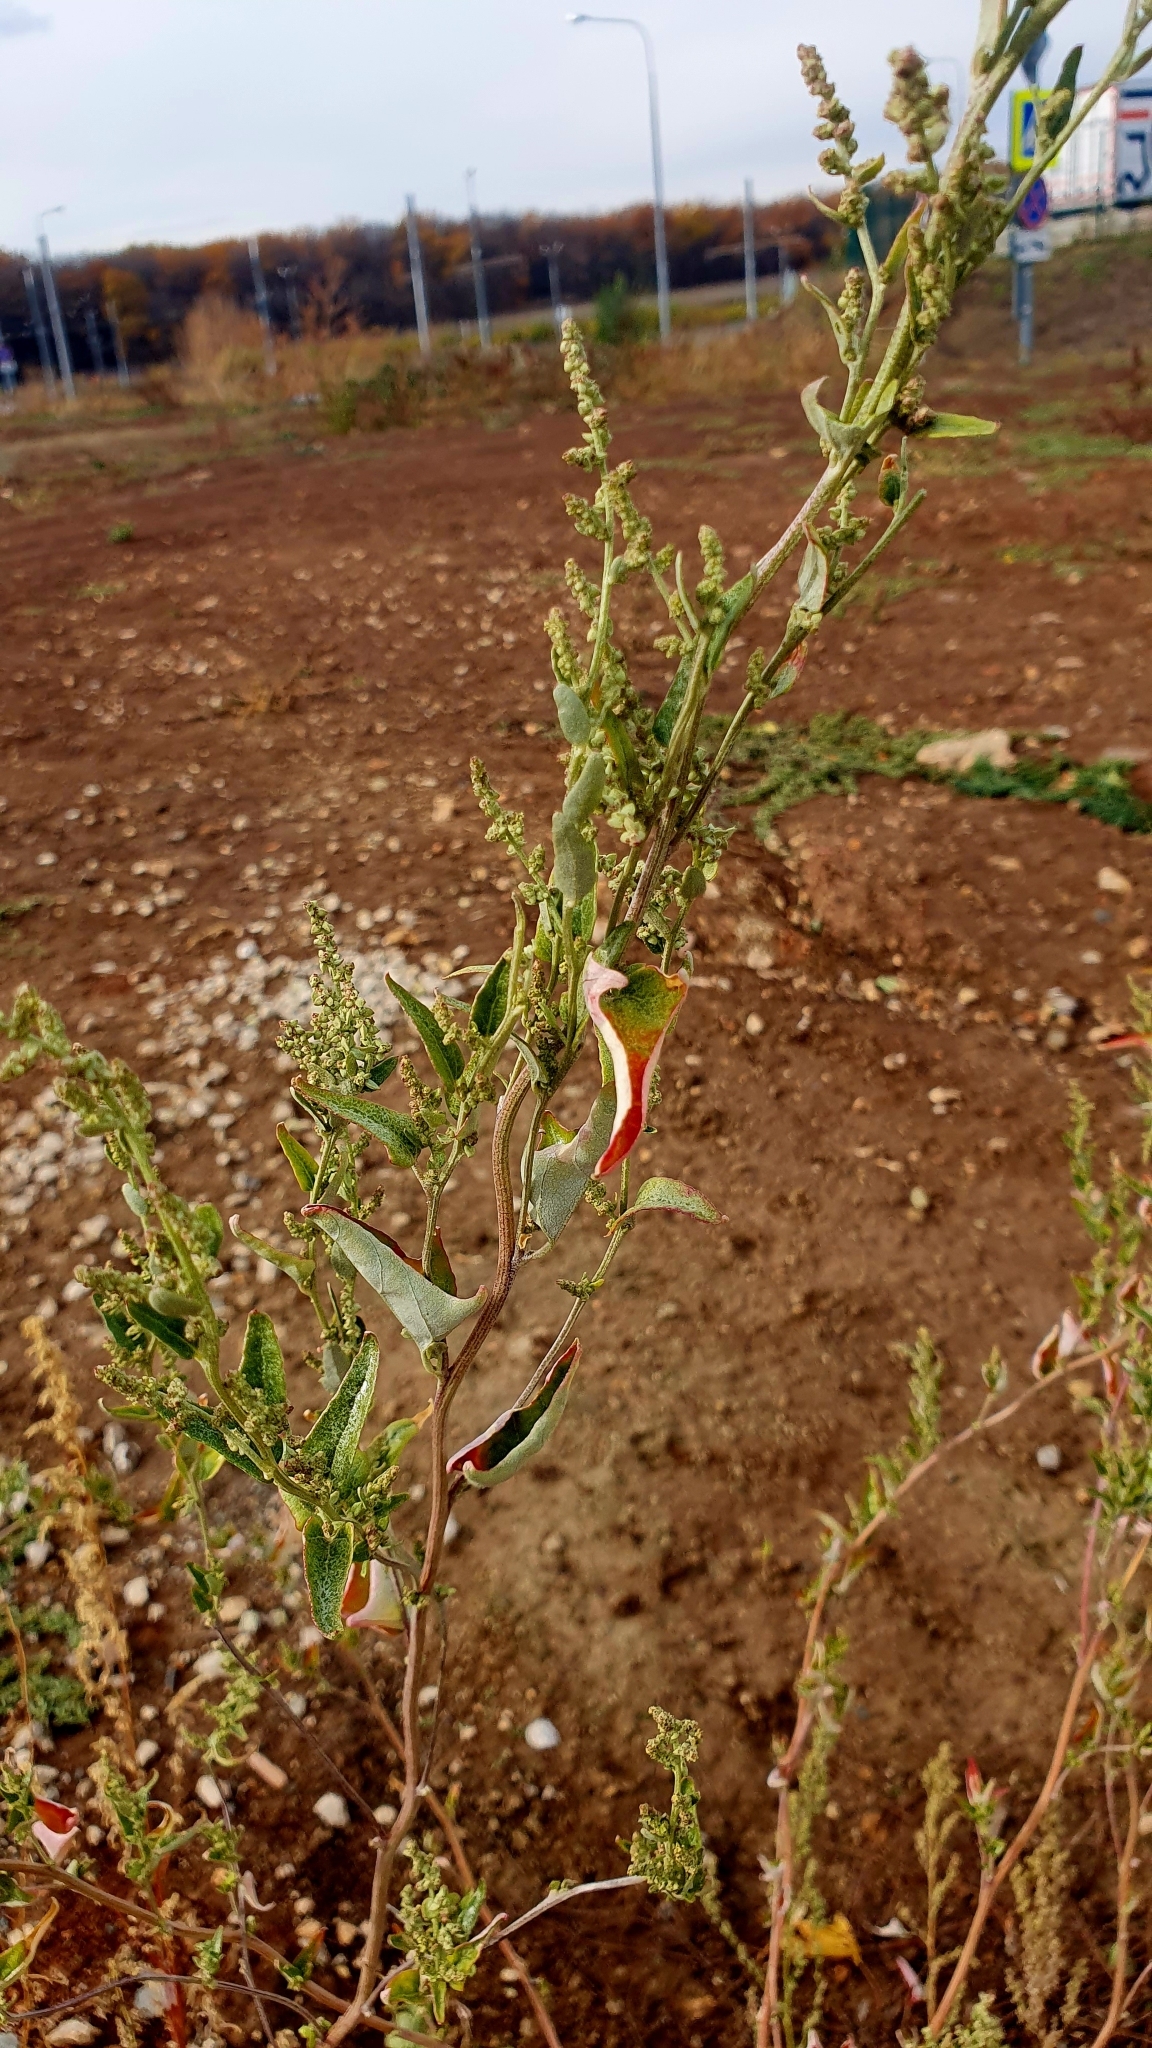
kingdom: Plantae
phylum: Tracheophyta
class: Magnoliopsida
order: Caryophyllales
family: Amaranthaceae
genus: Atriplex
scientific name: Atriplex sagittata
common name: Purple orache
